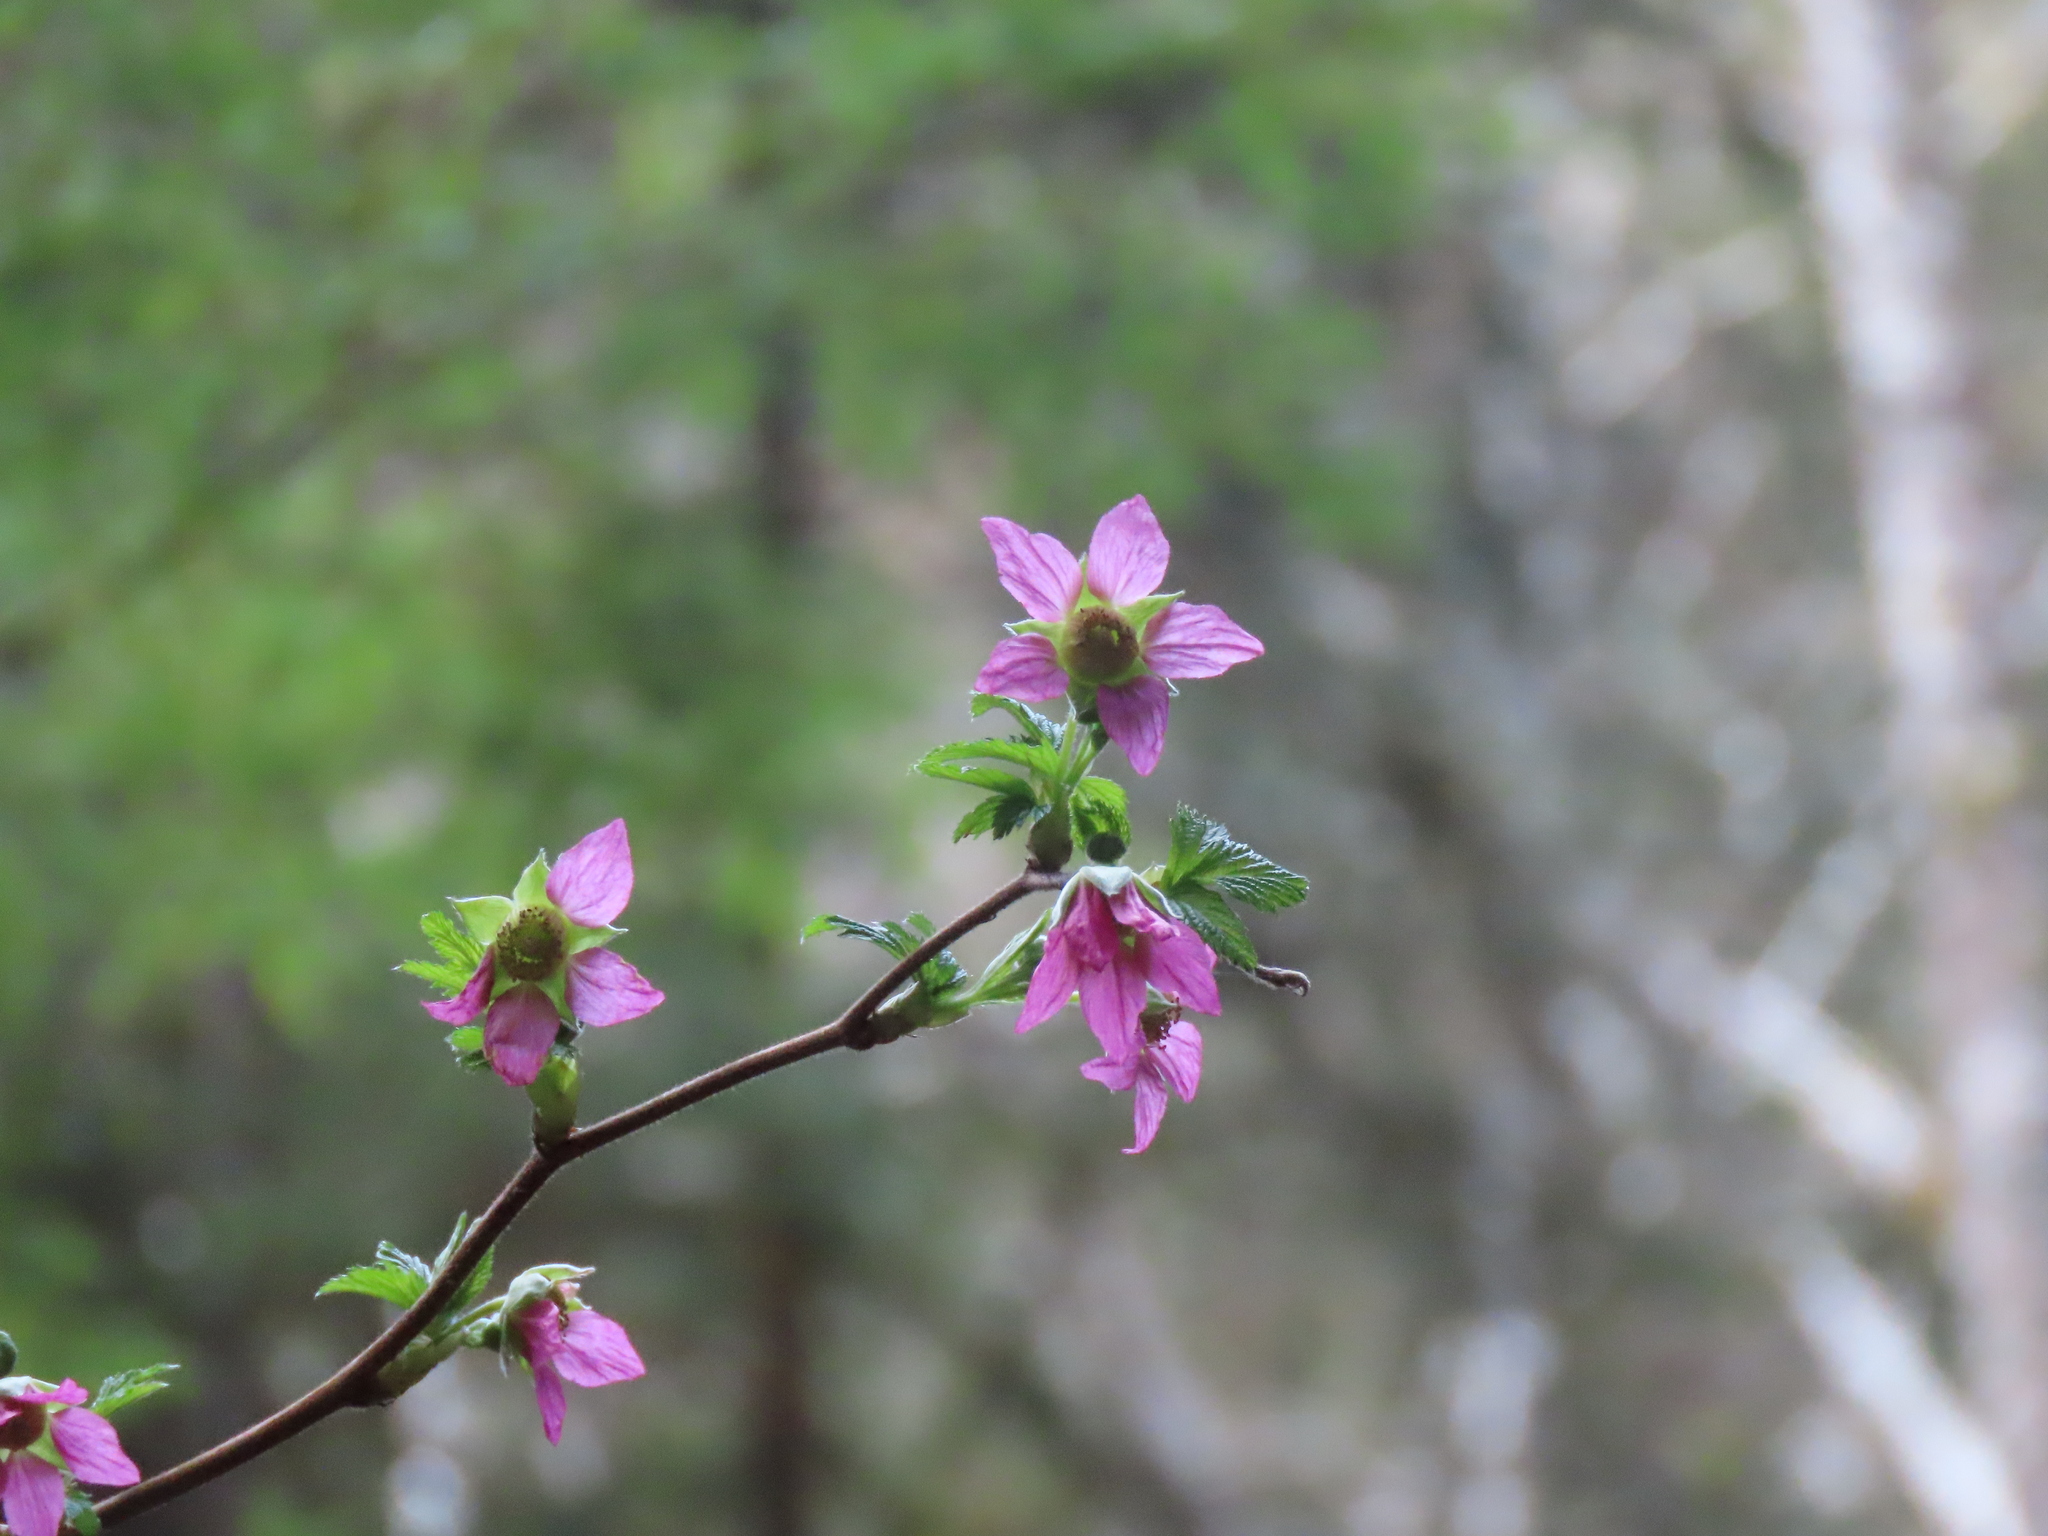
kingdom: Plantae
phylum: Tracheophyta
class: Magnoliopsida
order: Rosales
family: Rosaceae
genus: Rubus
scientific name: Rubus spectabilis
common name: Salmonberry
